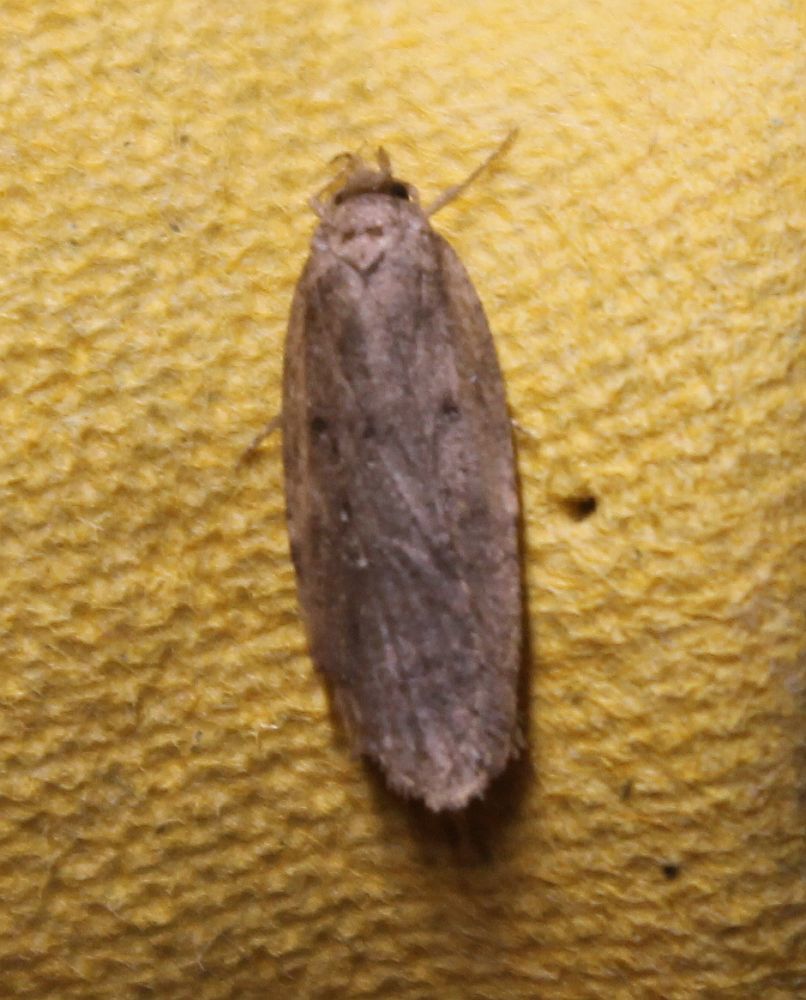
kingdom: Animalia
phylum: Arthropoda
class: Insecta
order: Lepidoptera
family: Oecophoridae
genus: Hofmannophila
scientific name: Hofmannophila pseudospretella
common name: Brown house moth
